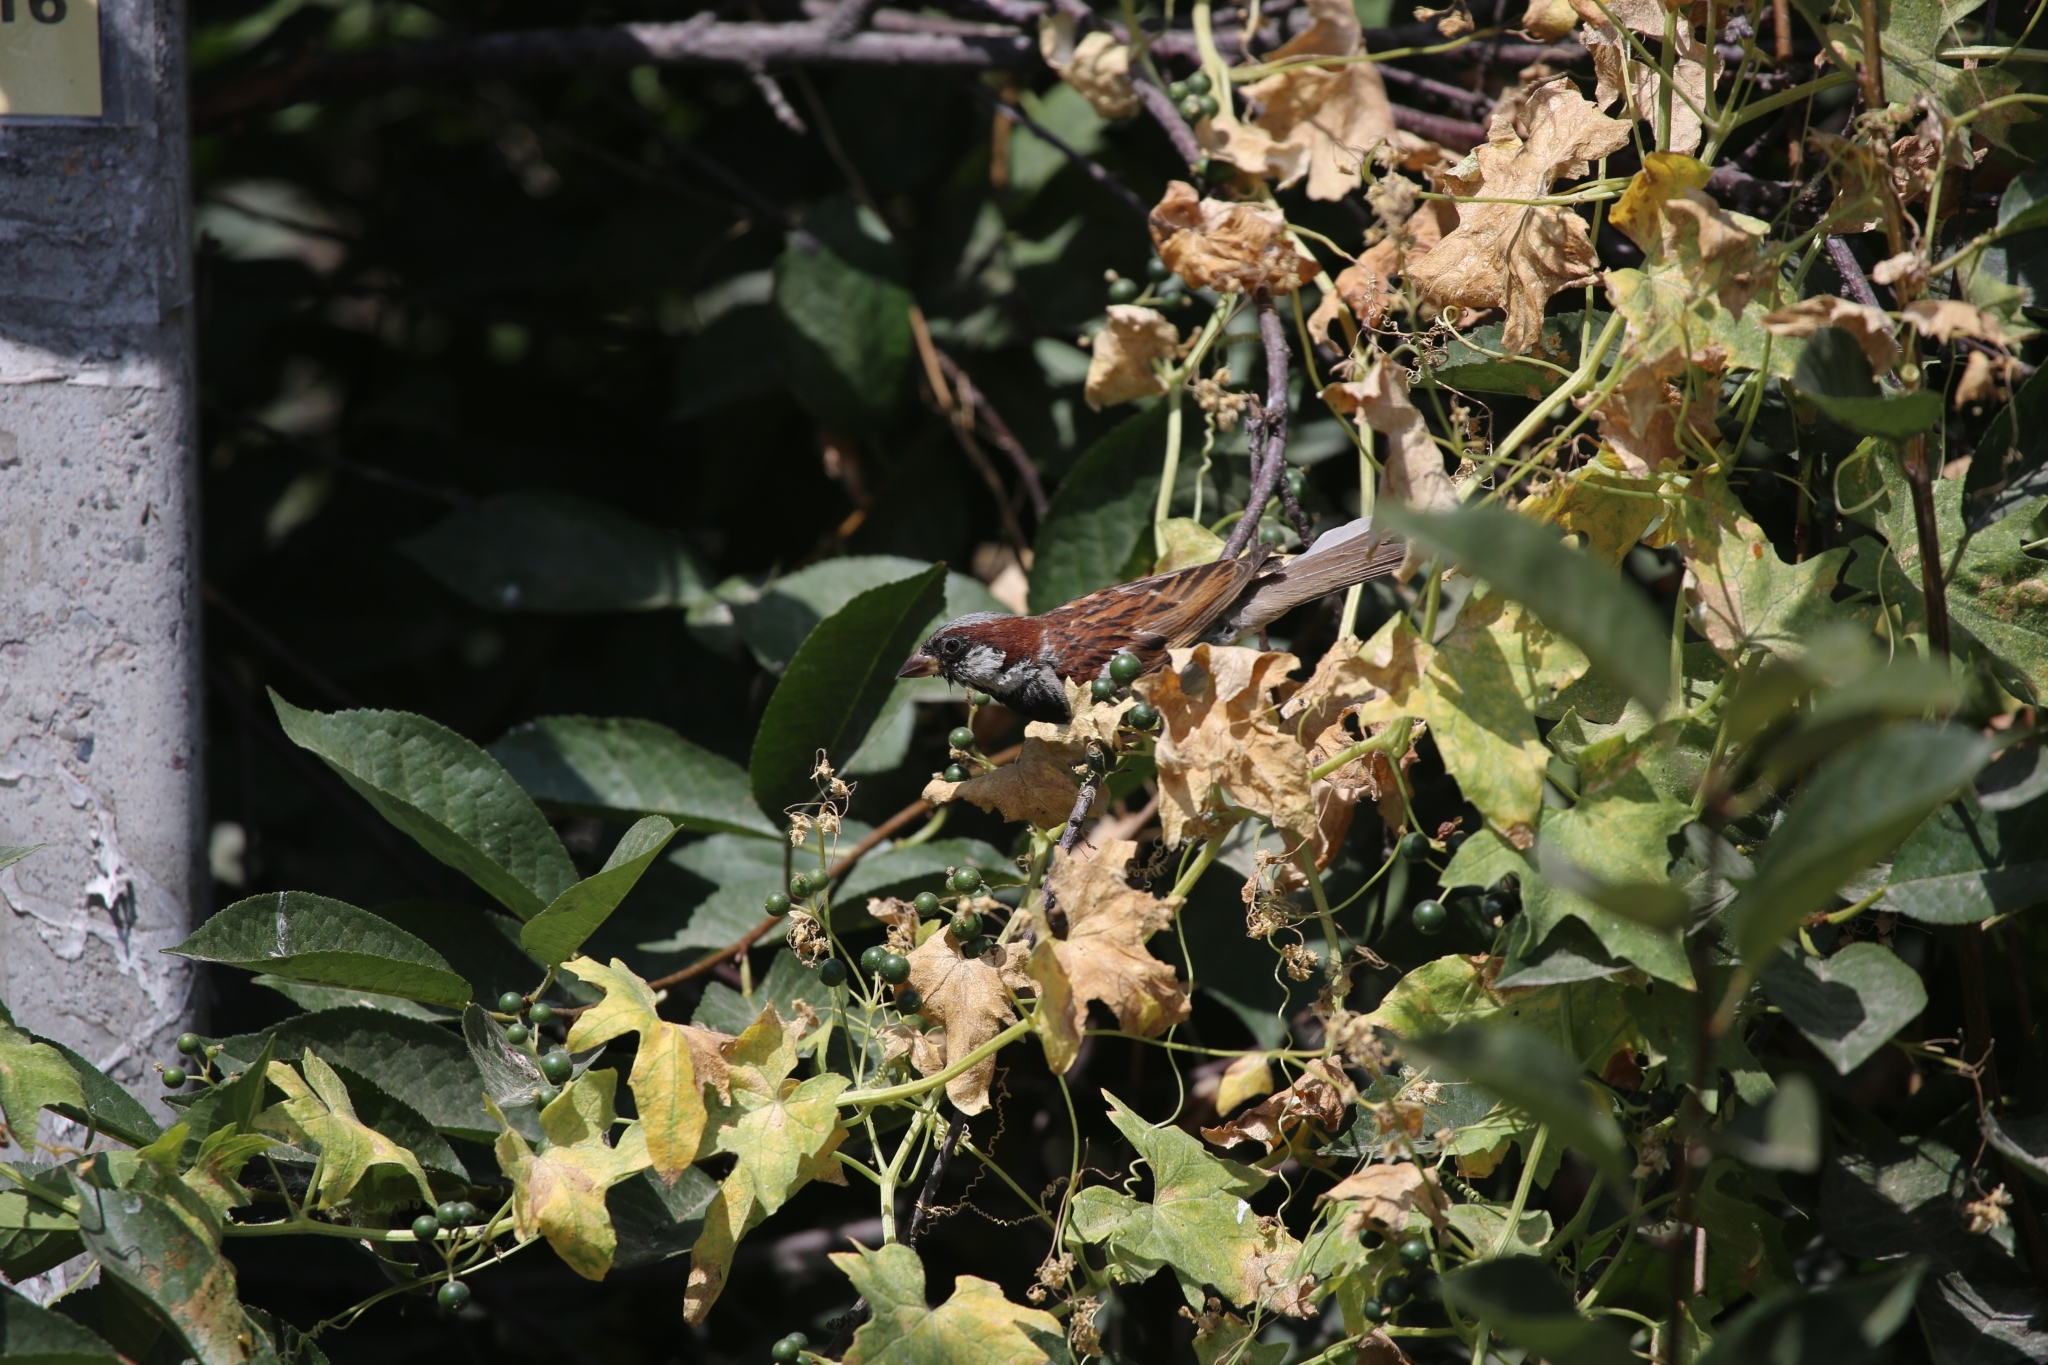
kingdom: Animalia
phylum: Chordata
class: Aves
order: Passeriformes
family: Passeridae
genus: Passer
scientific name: Passer domesticus
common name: House sparrow
